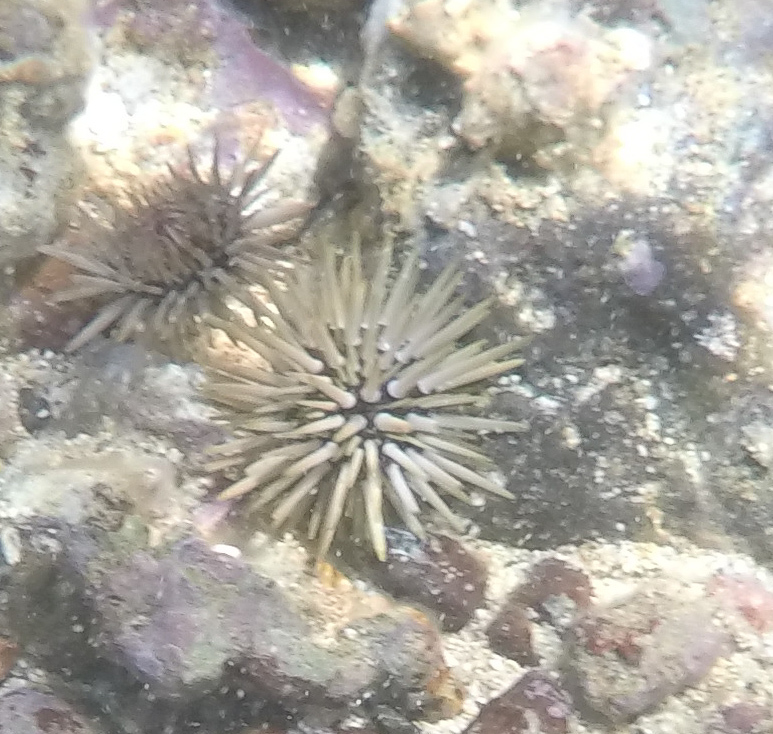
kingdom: Animalia
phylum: Echinodermata
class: Echinoidea
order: Camarodonta
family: Echinometridae
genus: Echinometra
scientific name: Echinometra mathaei
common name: Rock-boring urchin
